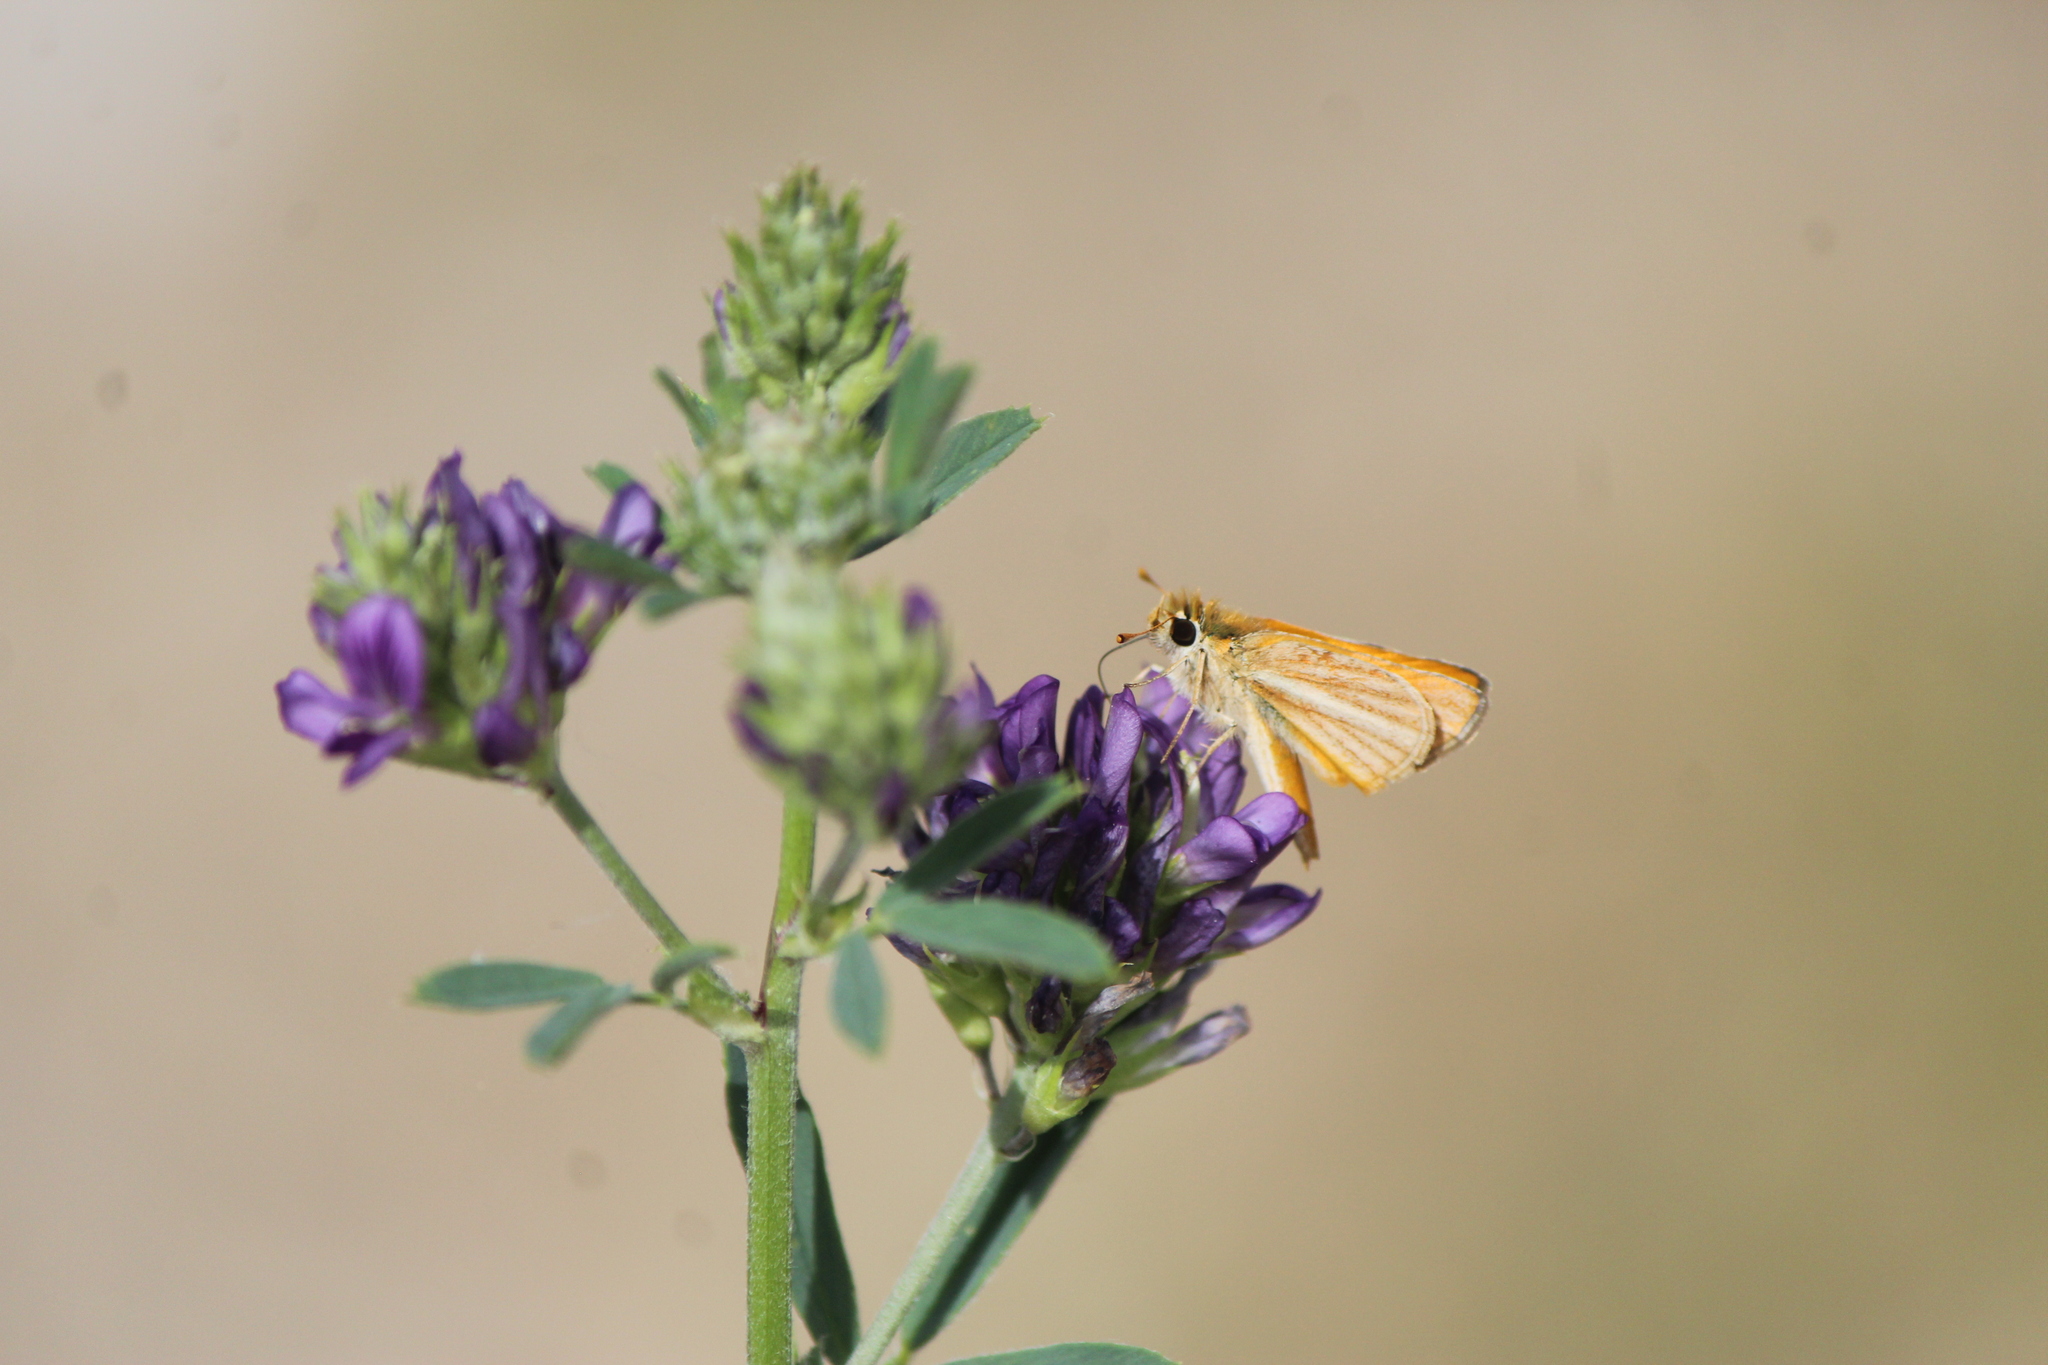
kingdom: Animalia
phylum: Arthropoda
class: Insecta
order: Lepidoptera
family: Hesperiidae
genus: Copaeodes
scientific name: Copaeodes minima
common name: Southern skipperling
